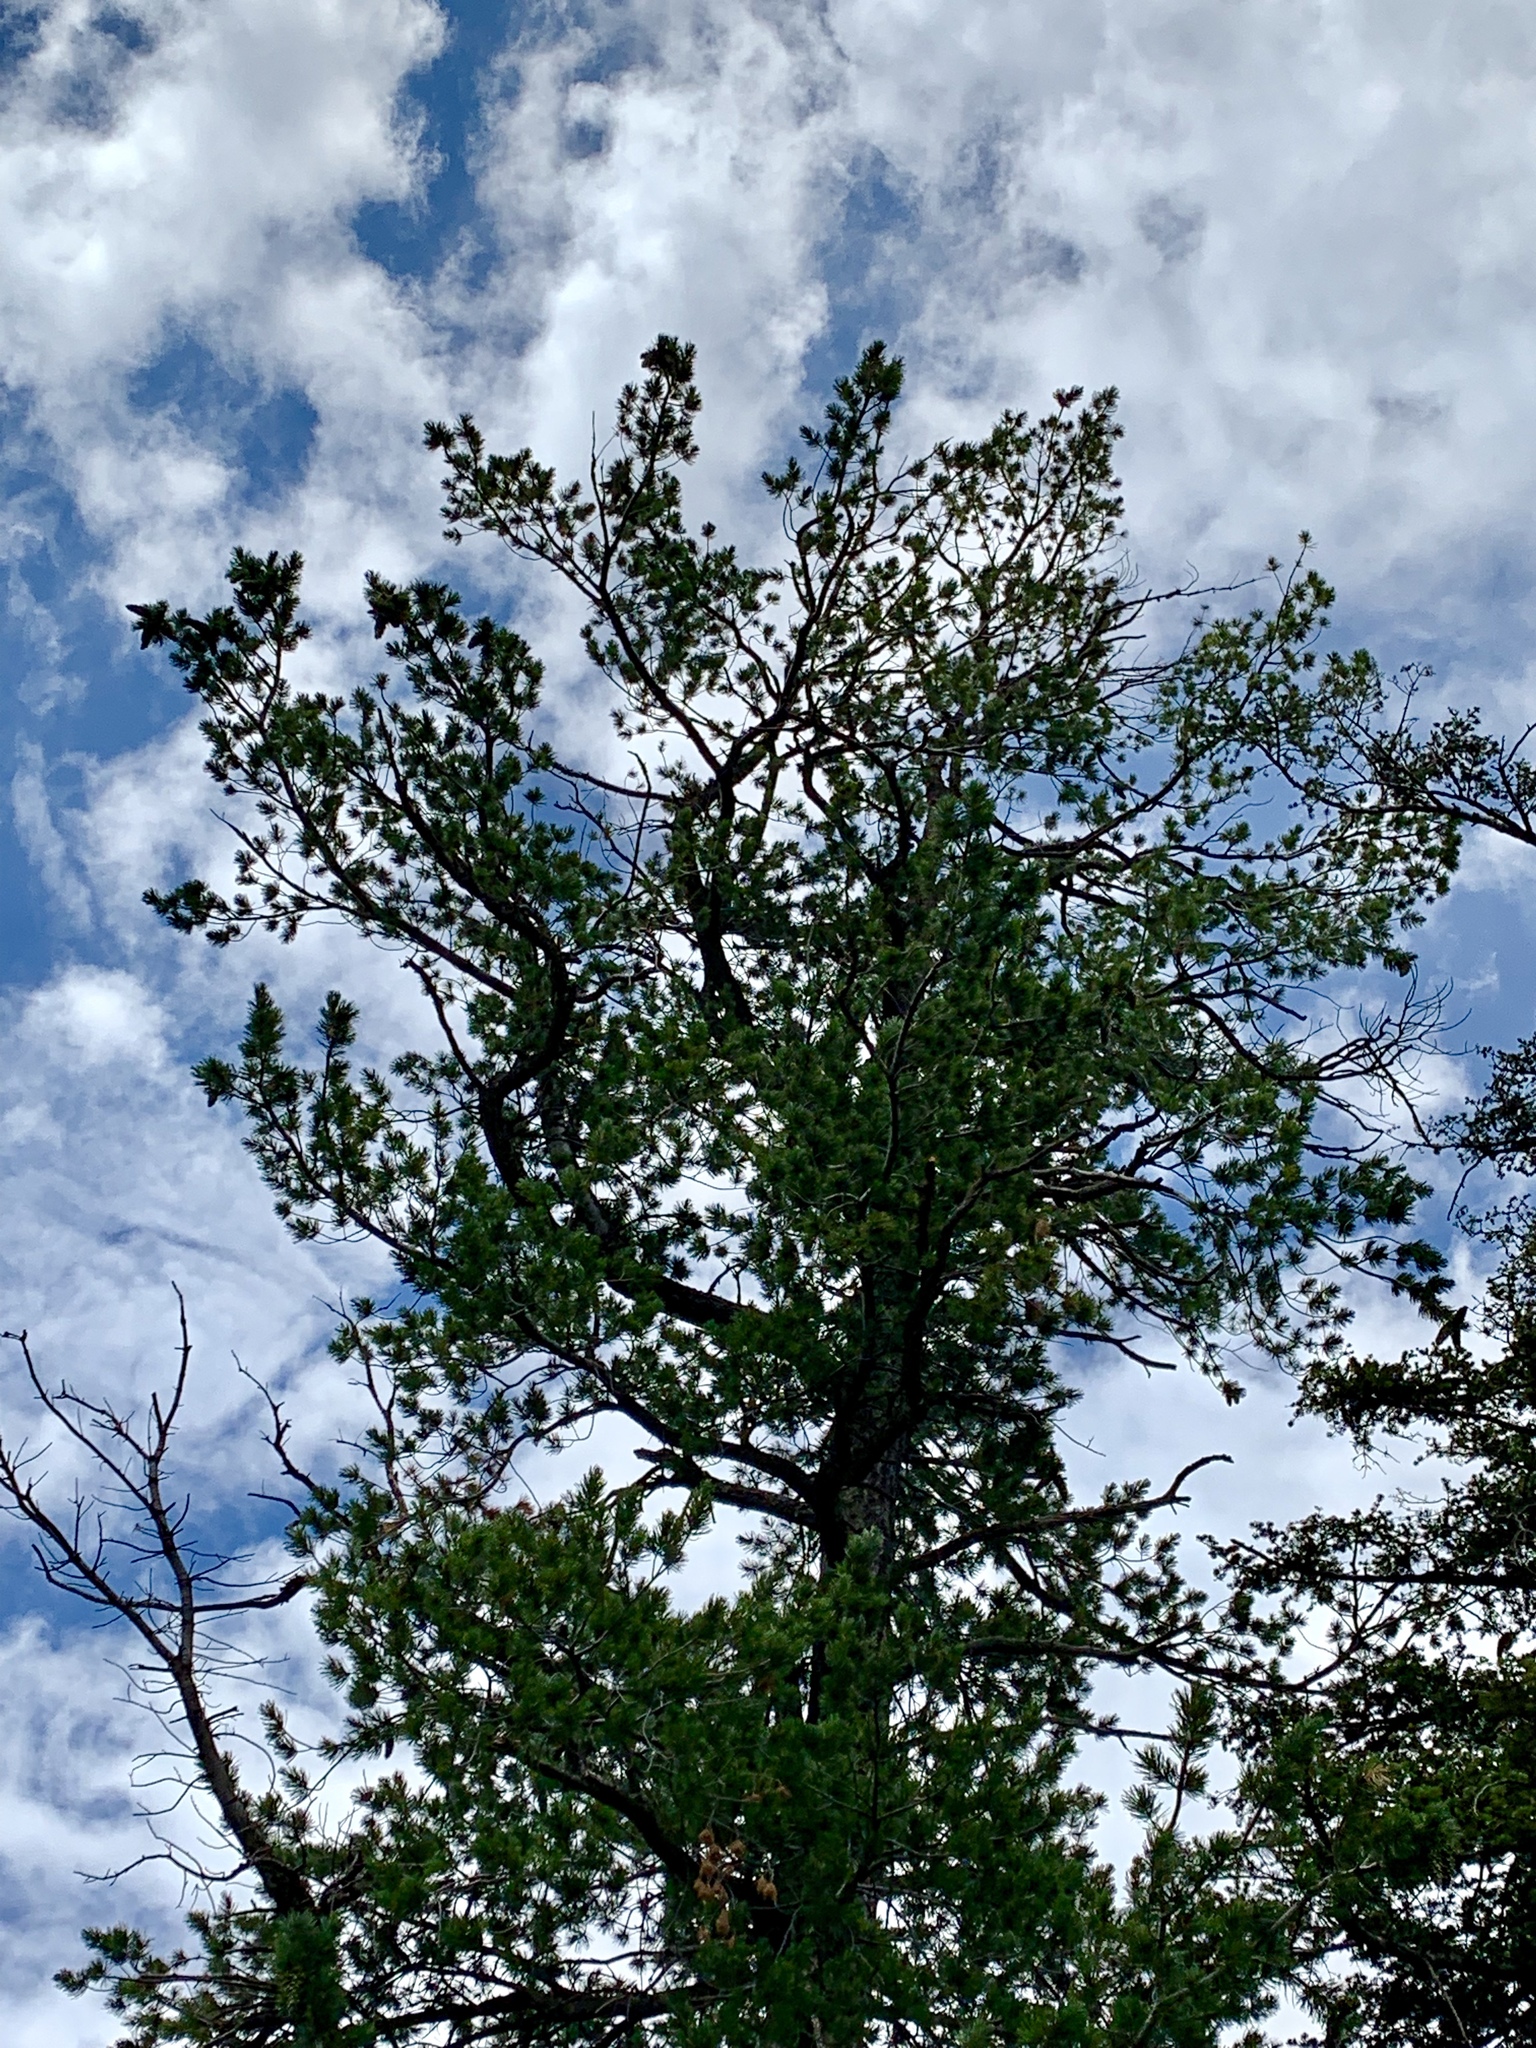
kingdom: Plantae
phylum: Tracheophyta
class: Pinopsida
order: Pinales
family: Pinaceae
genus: Pinus
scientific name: Pinus strobiformis
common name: Southwestern white pine
